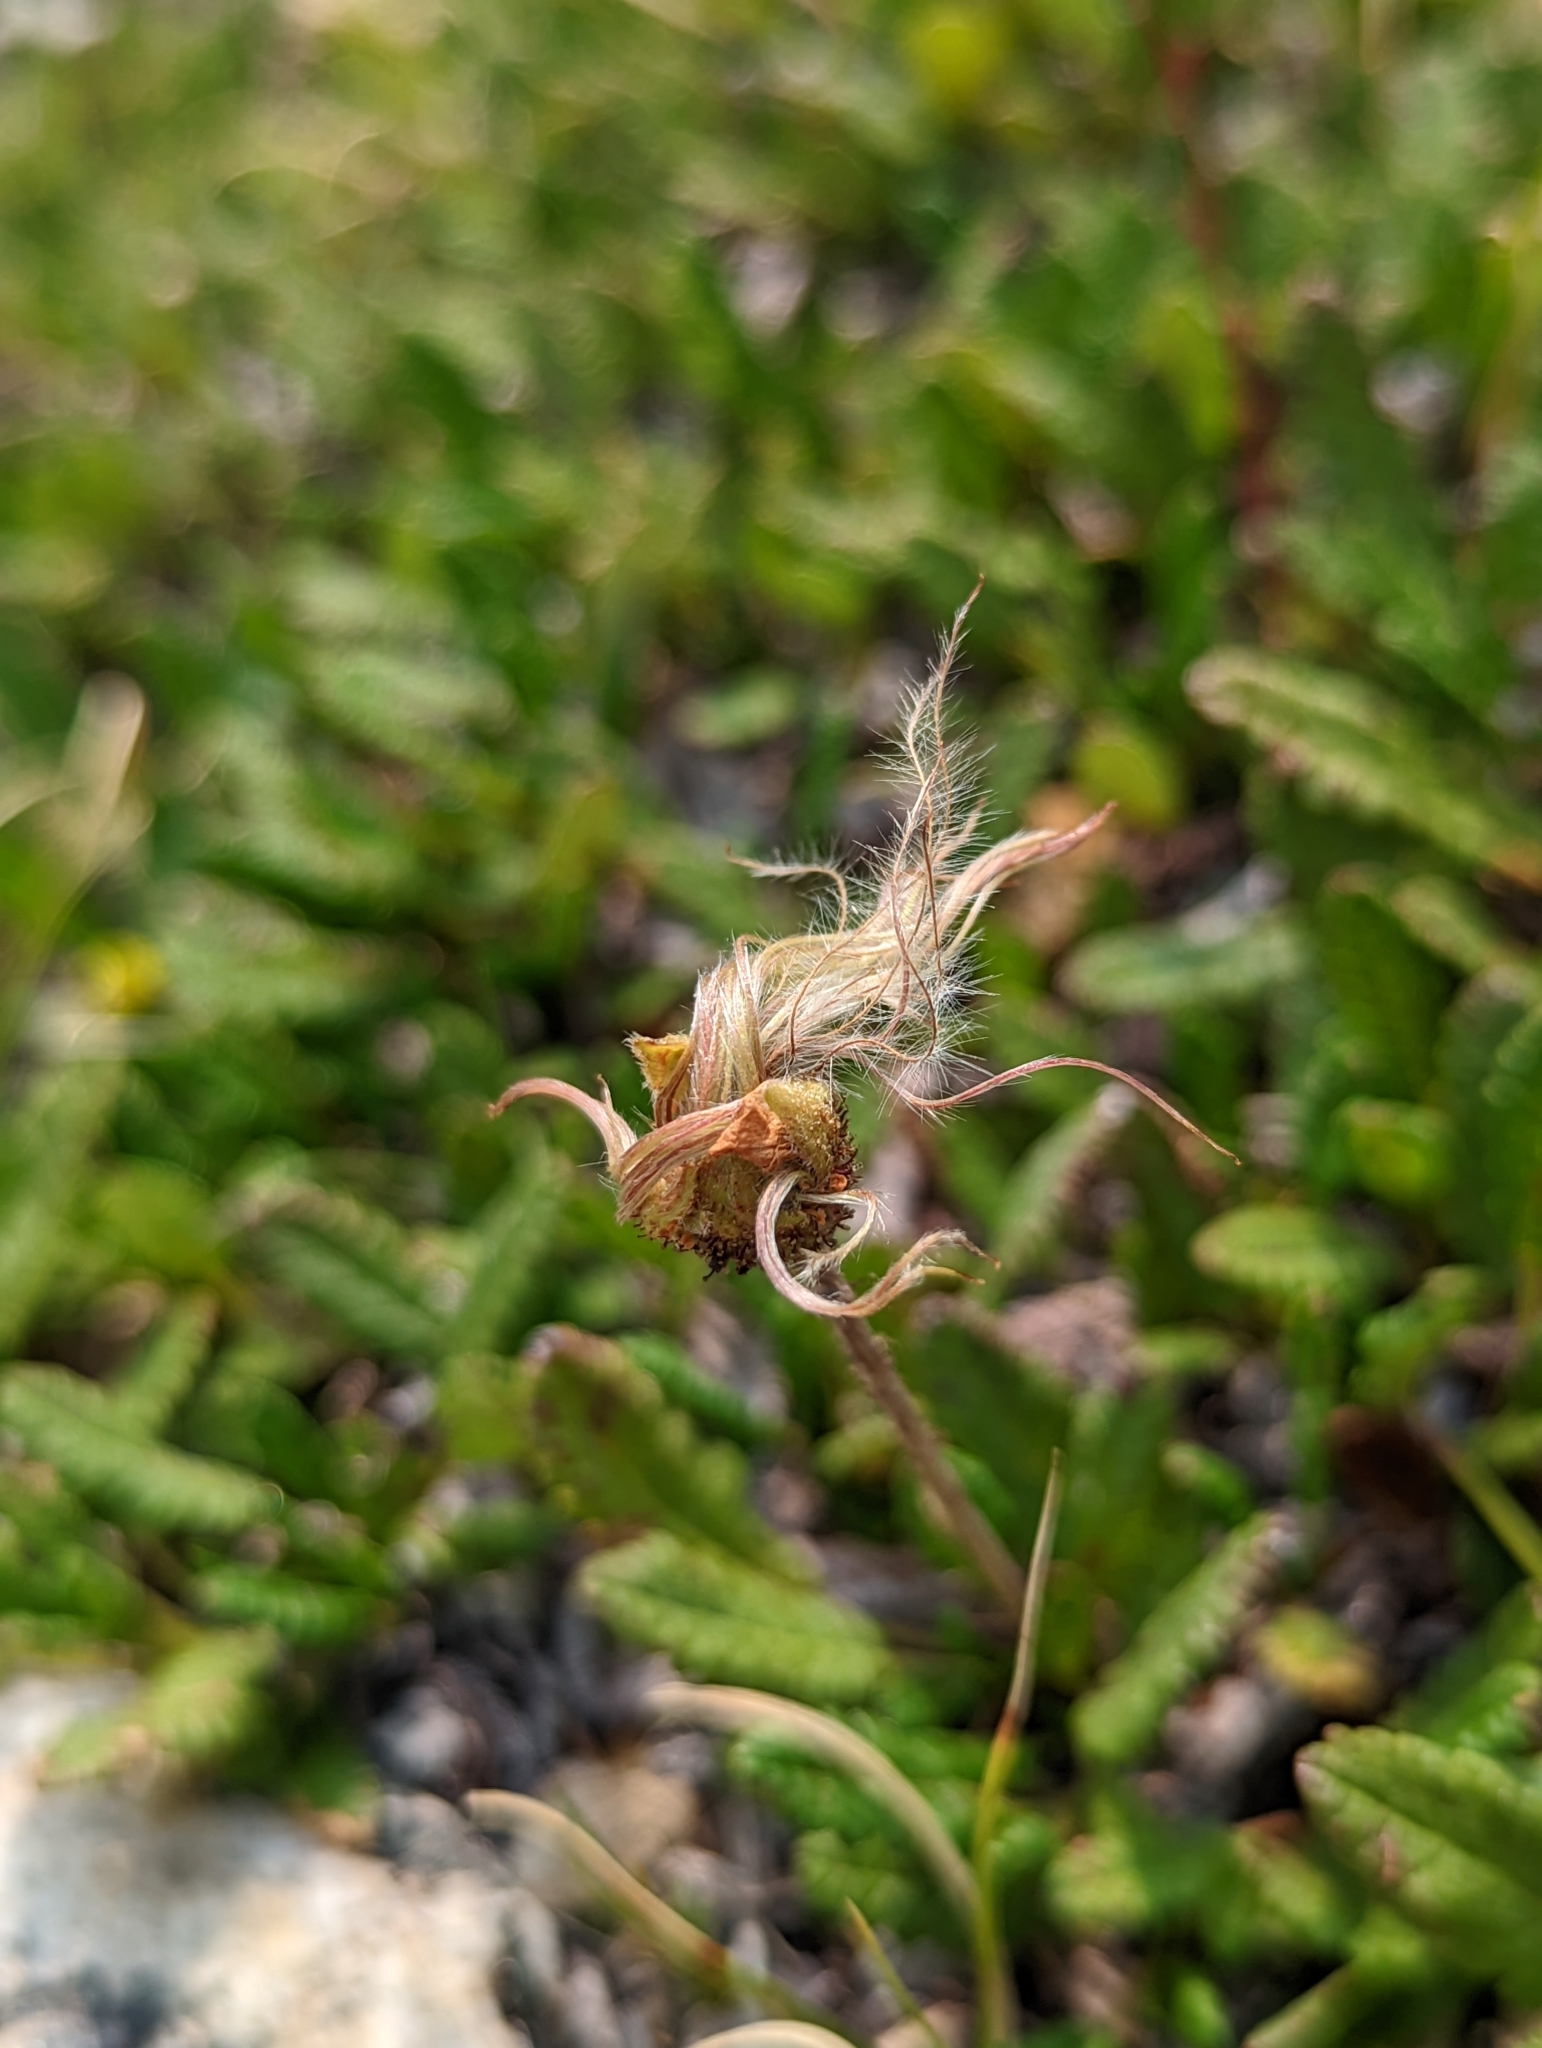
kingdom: Plantae
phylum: Tracheophyta
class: Magnoliopsida
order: Rosales
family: Rosaceae
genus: Dryas
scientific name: Dryas octopetala
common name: Eight-petal mountain-avens
